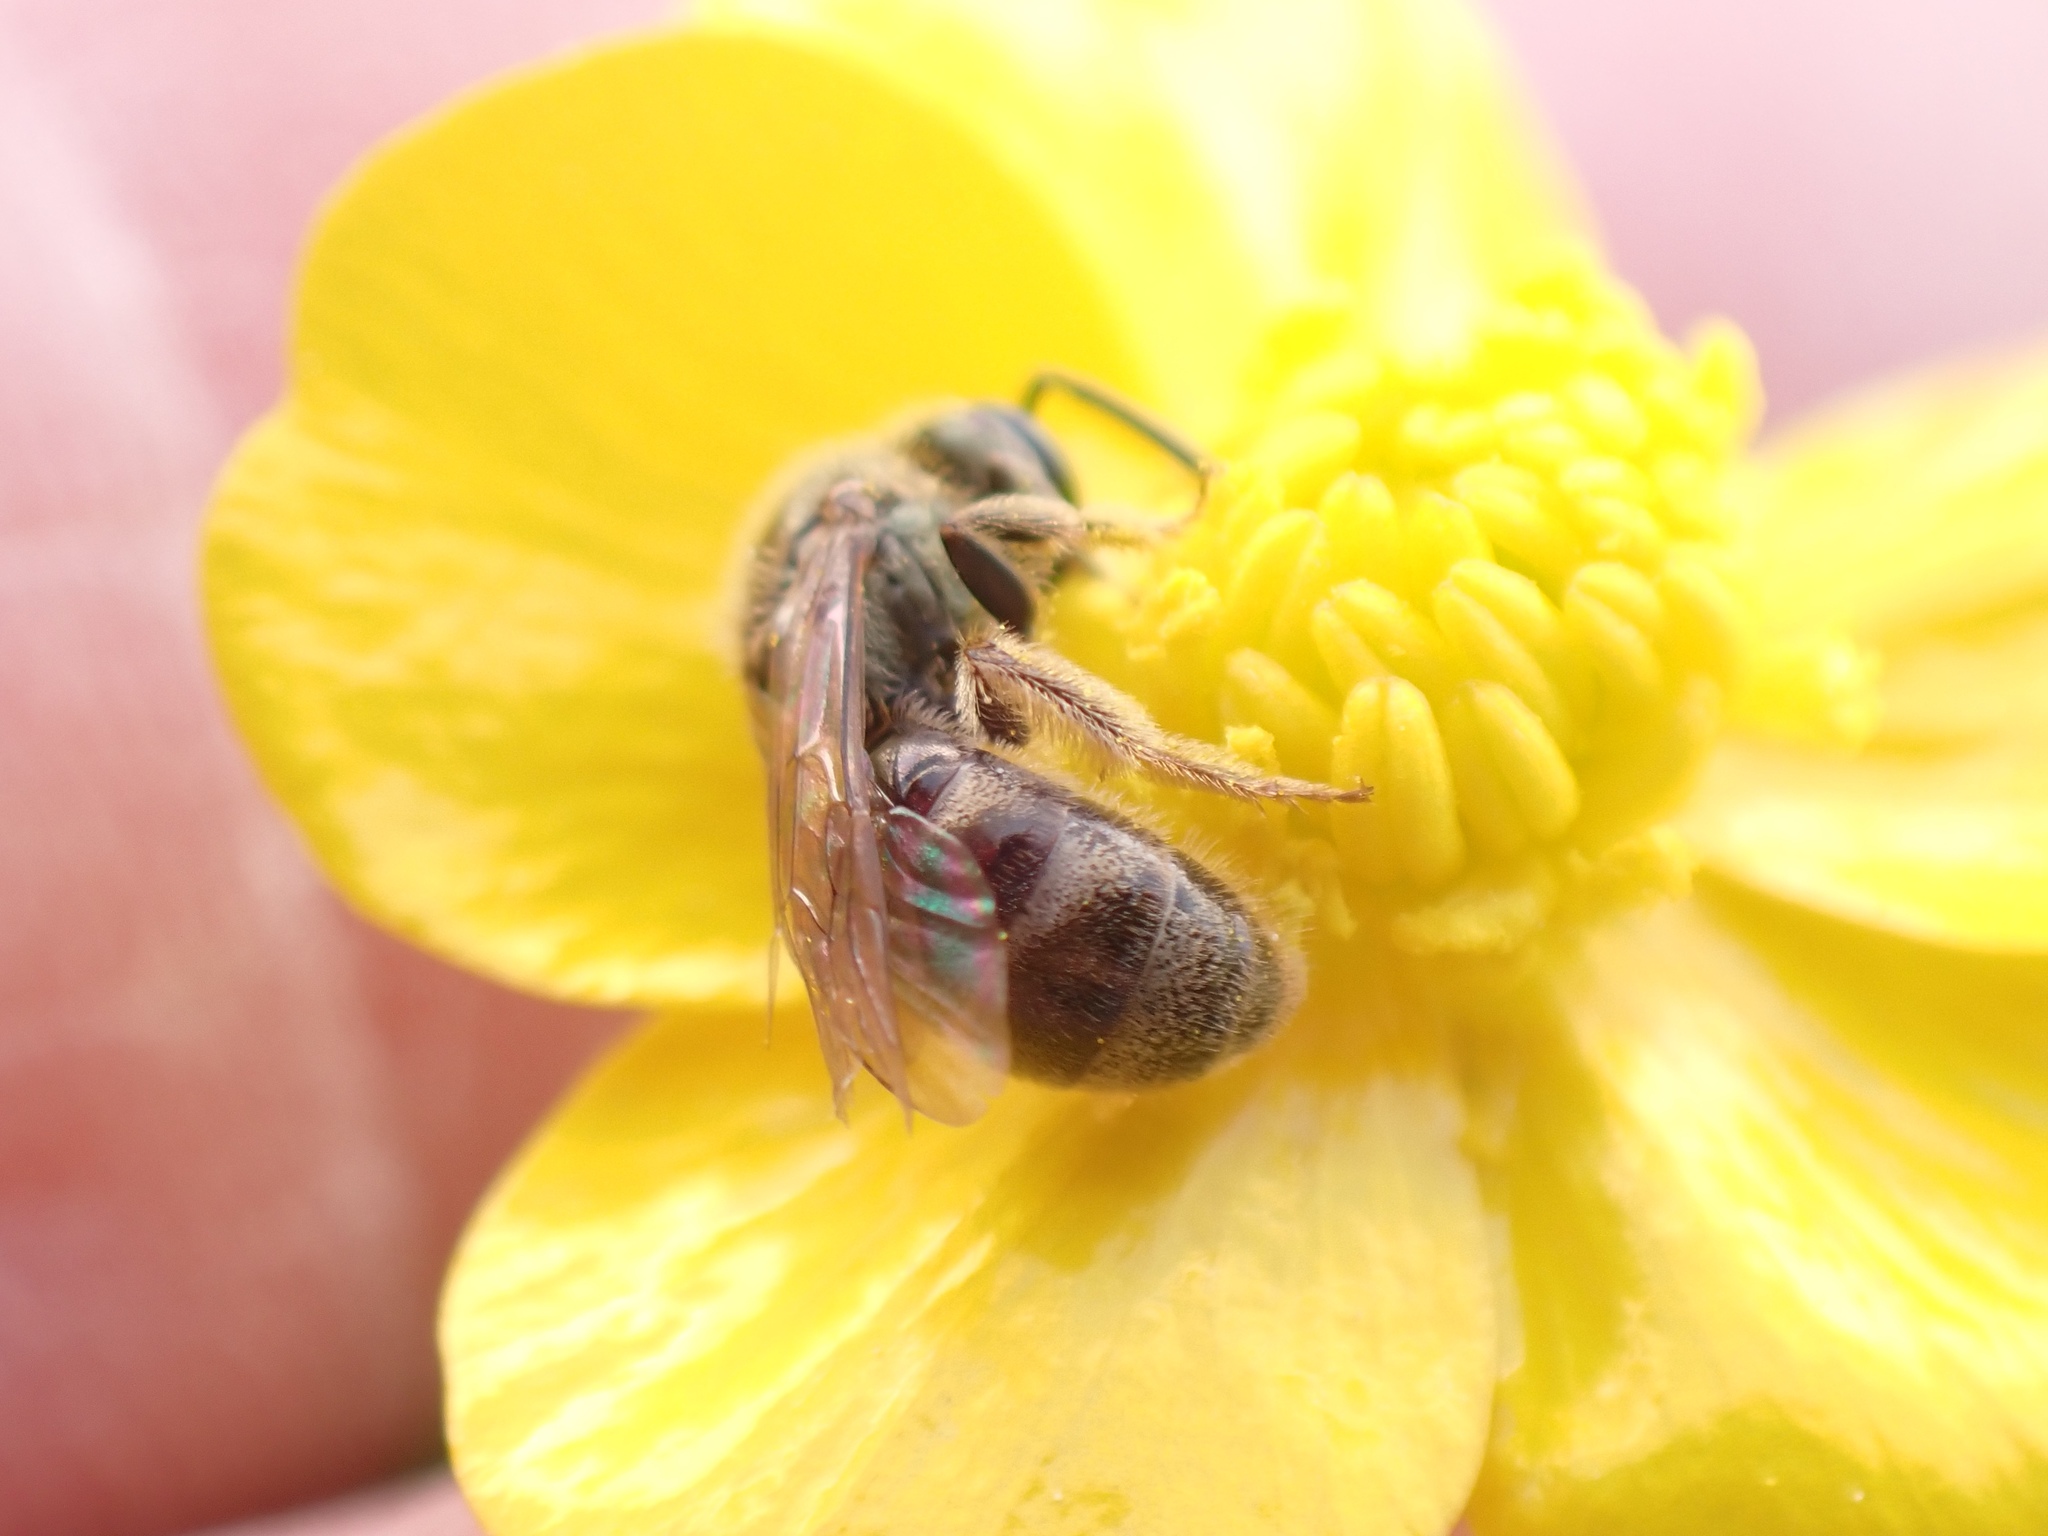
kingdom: Animalia
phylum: Arthropoda
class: Insecta
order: Hymenoptera
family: Halictidae
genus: Dialictus
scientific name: Dialictus
